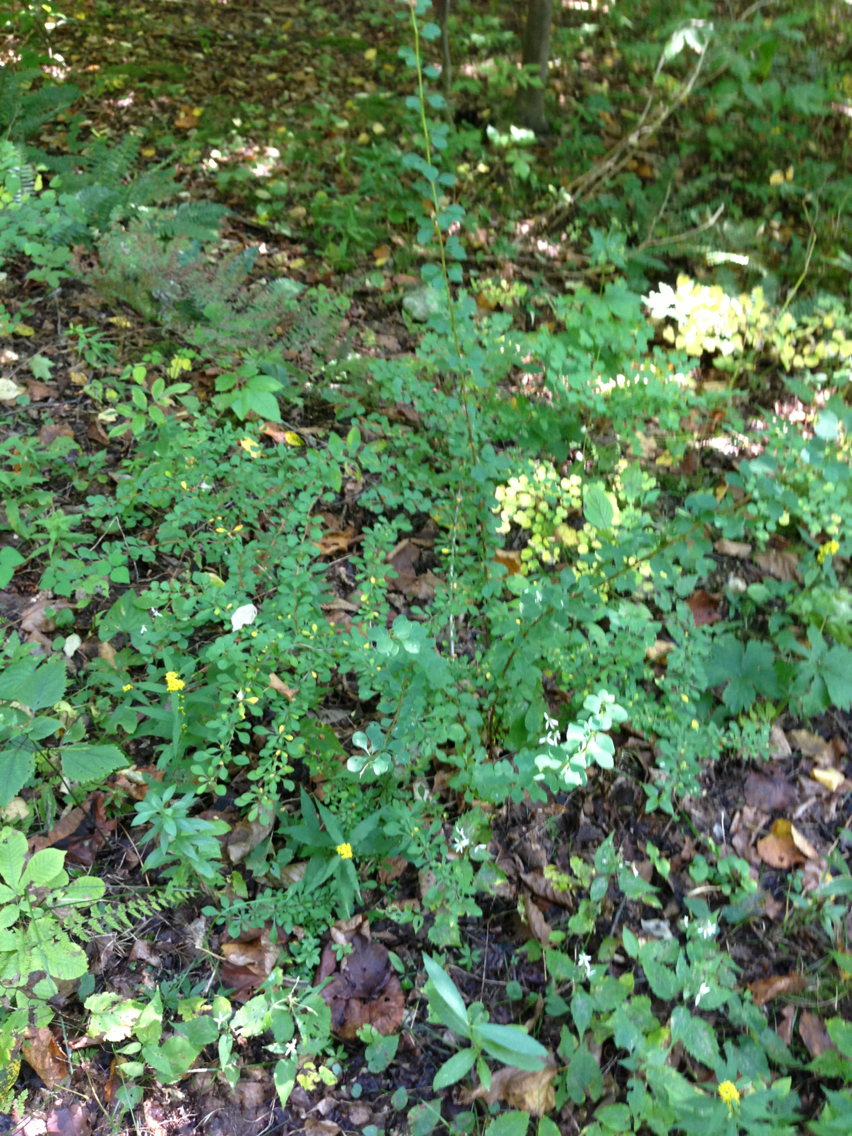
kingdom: Plantae
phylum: Tracheophyta
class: Magnoliopsida
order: Ranunculales
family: Berberidaceae
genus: Berberis
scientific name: Berberis thunbergii
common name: Japanese barberry
